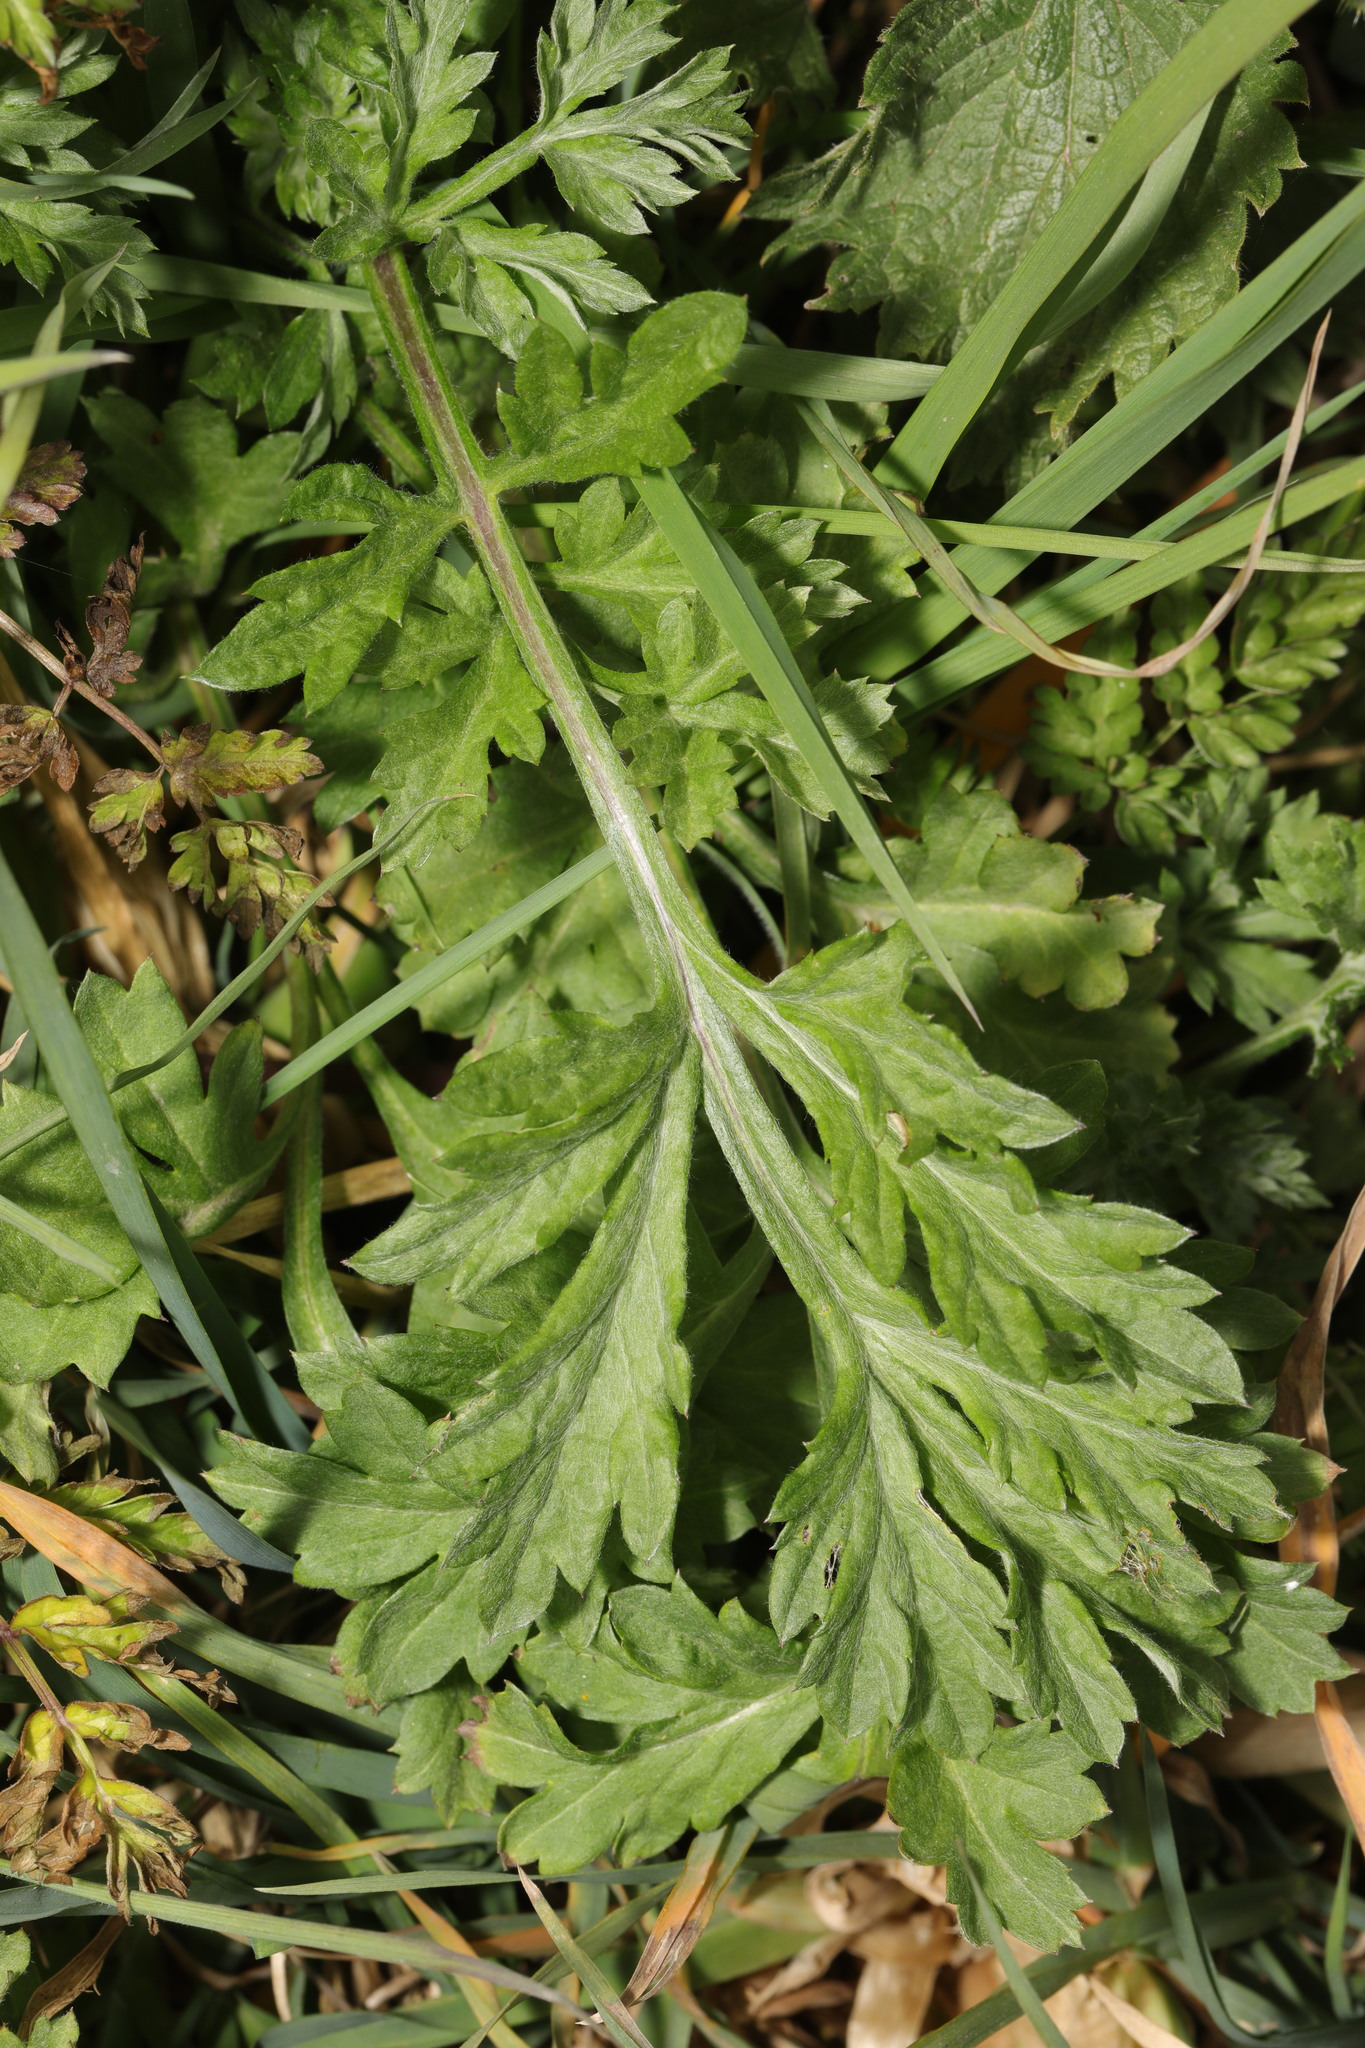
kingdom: Plantae
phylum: Tracheophyta
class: Magnoliopsida
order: Asterales
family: Asteraceae
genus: Artemisia
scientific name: Artemisia vulgaris
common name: Mugwort
